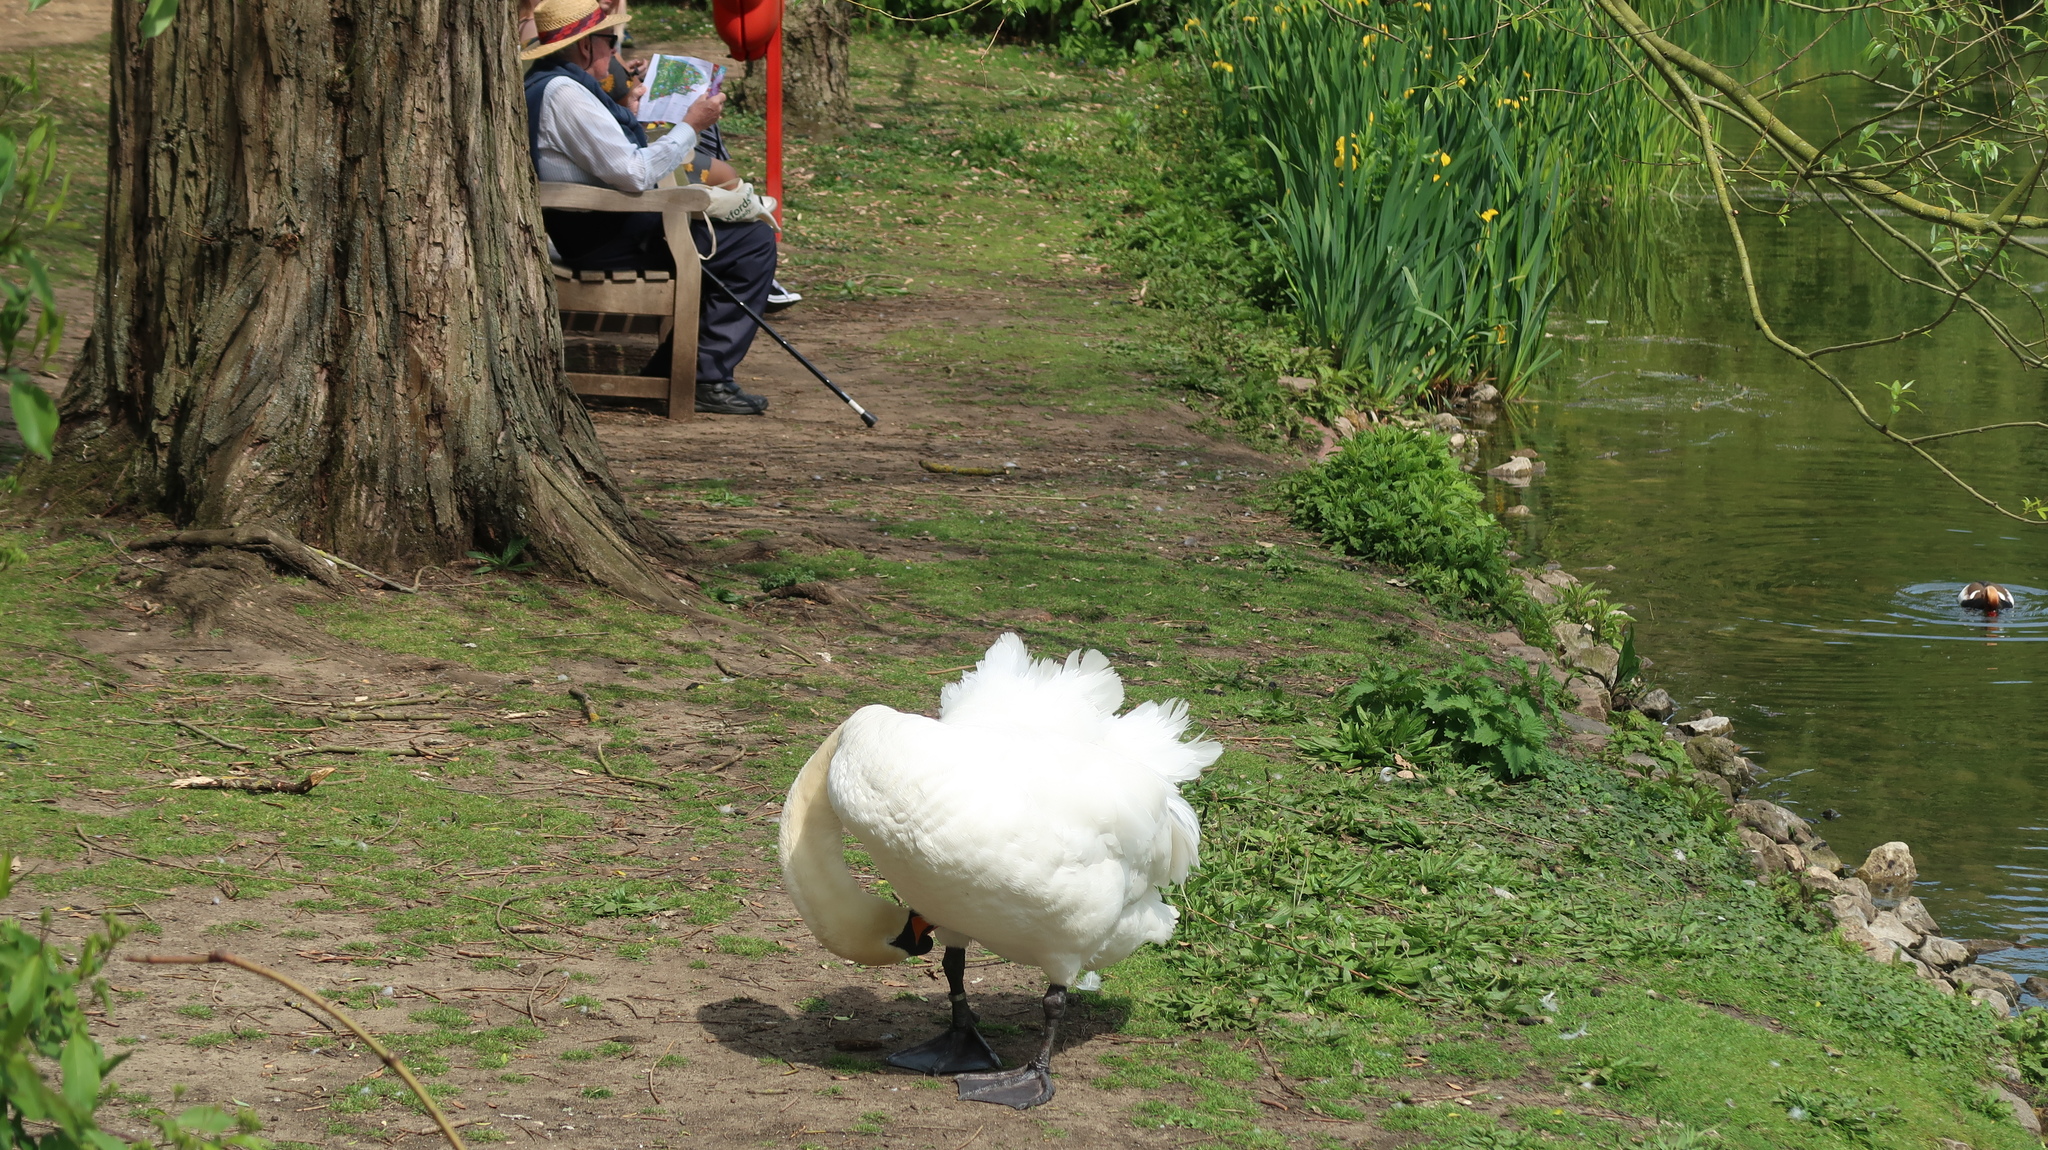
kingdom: Animalia
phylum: Chordata
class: Aves
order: Anseriformes
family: Anatidae
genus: Cygnus
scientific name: Cygnus olor
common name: Mute swan
